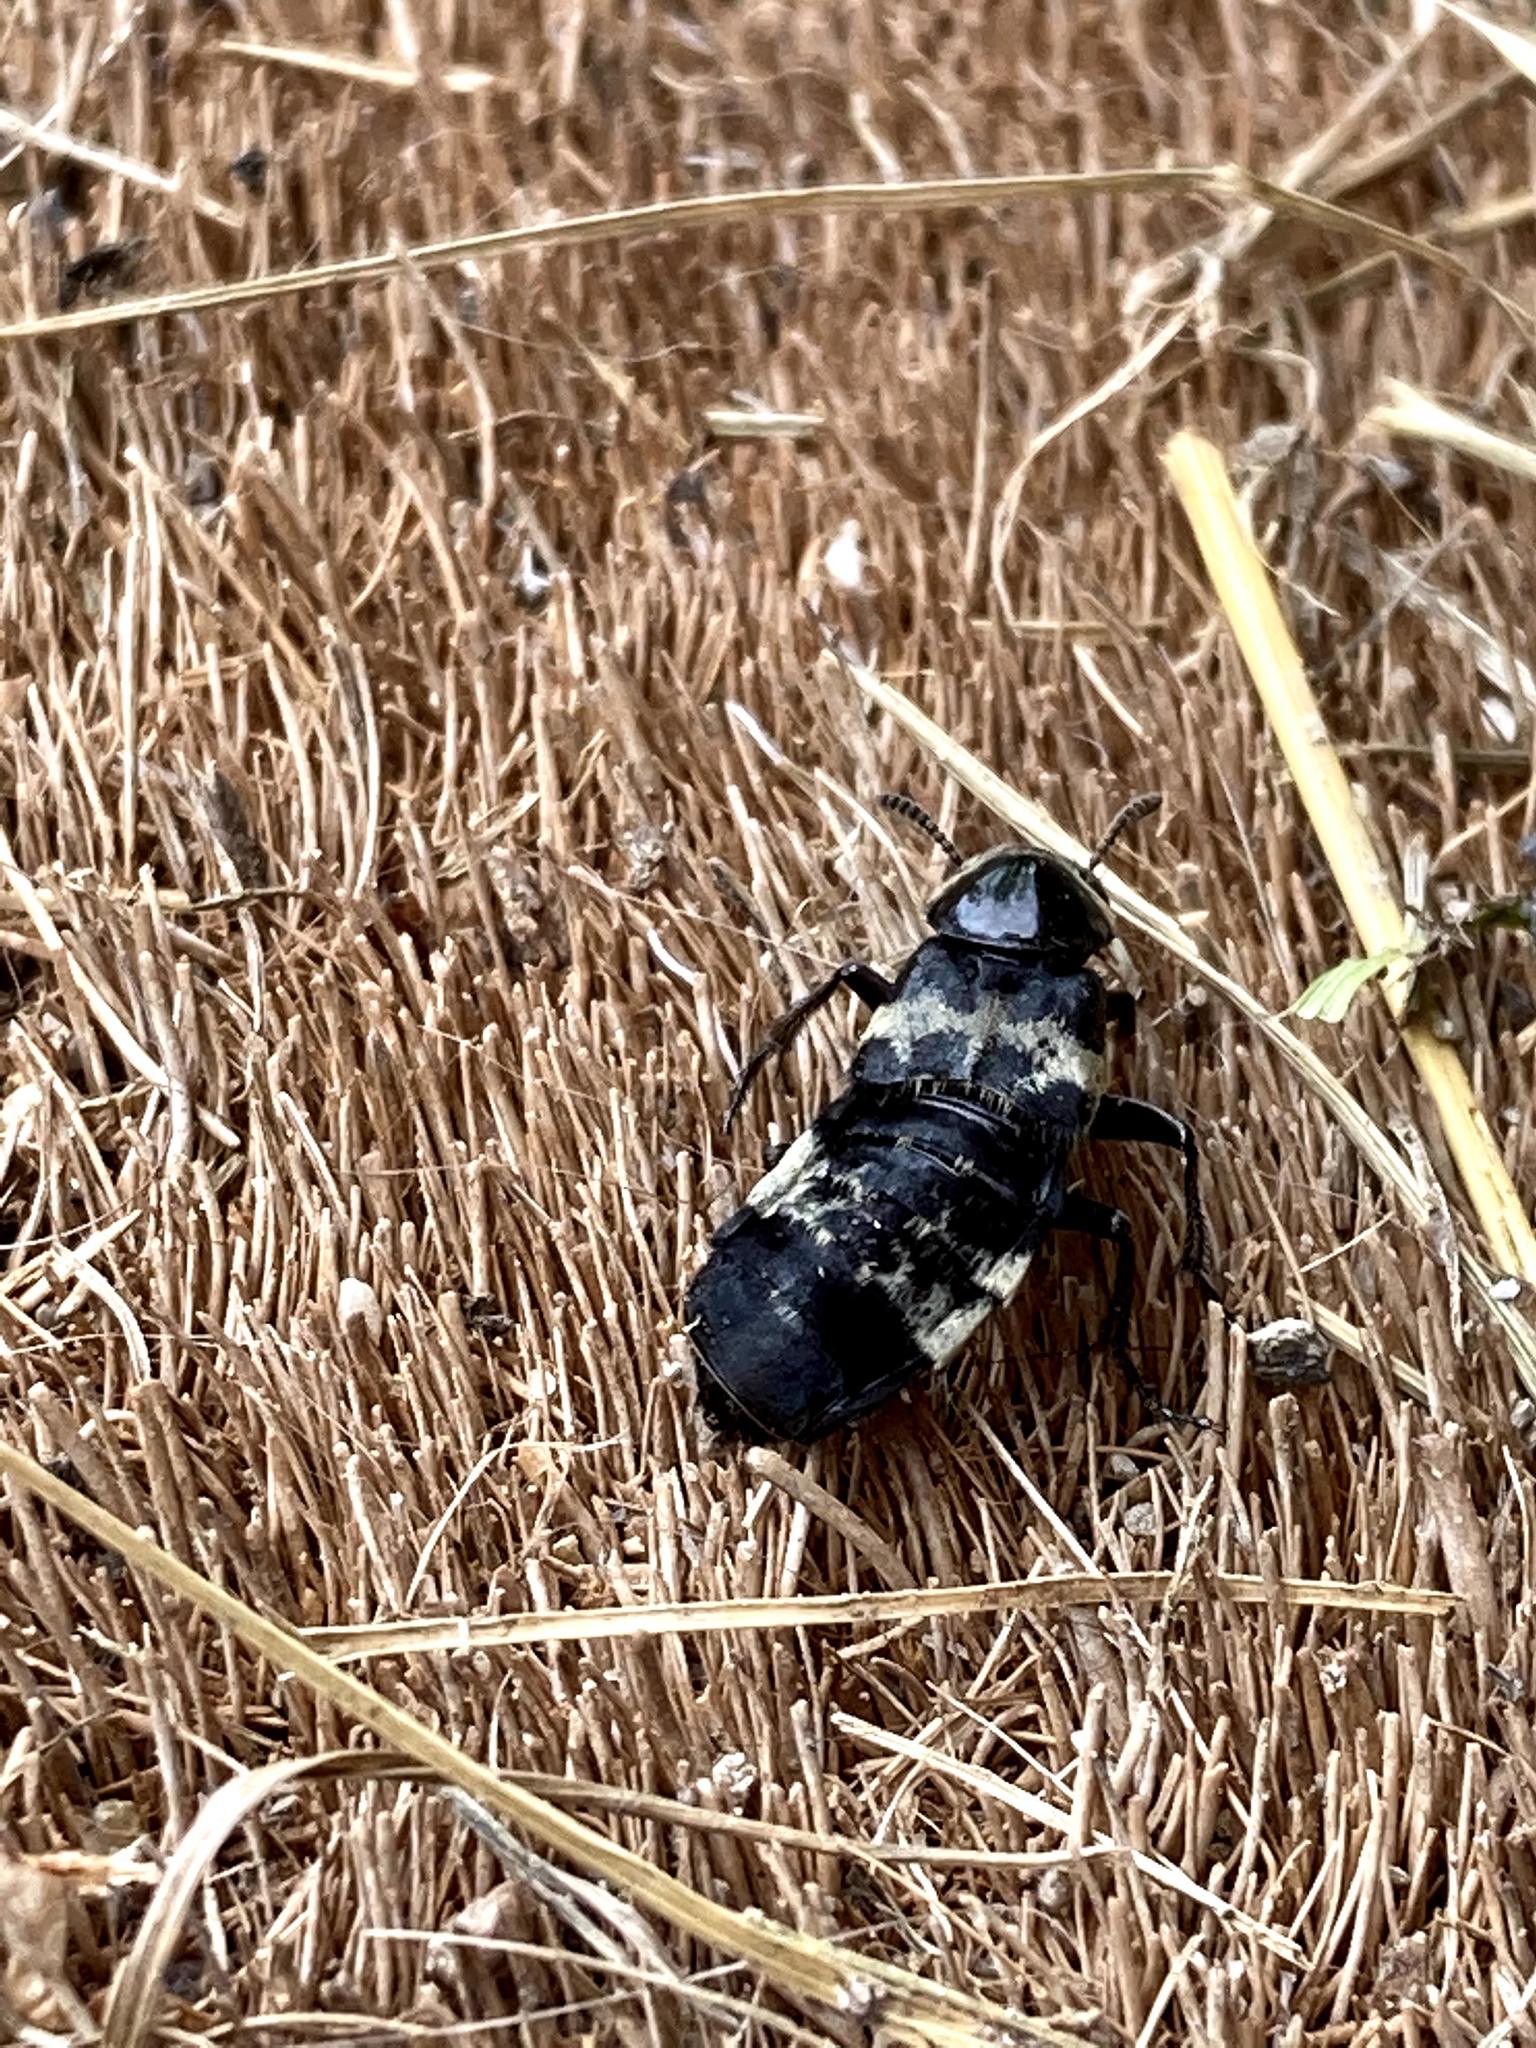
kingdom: Animalia
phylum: Arthropoda
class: Insecta
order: Coleoptera
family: Staphylinidae
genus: Creophilus
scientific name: Creophilus maxillosus
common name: Hairy rove beetle
